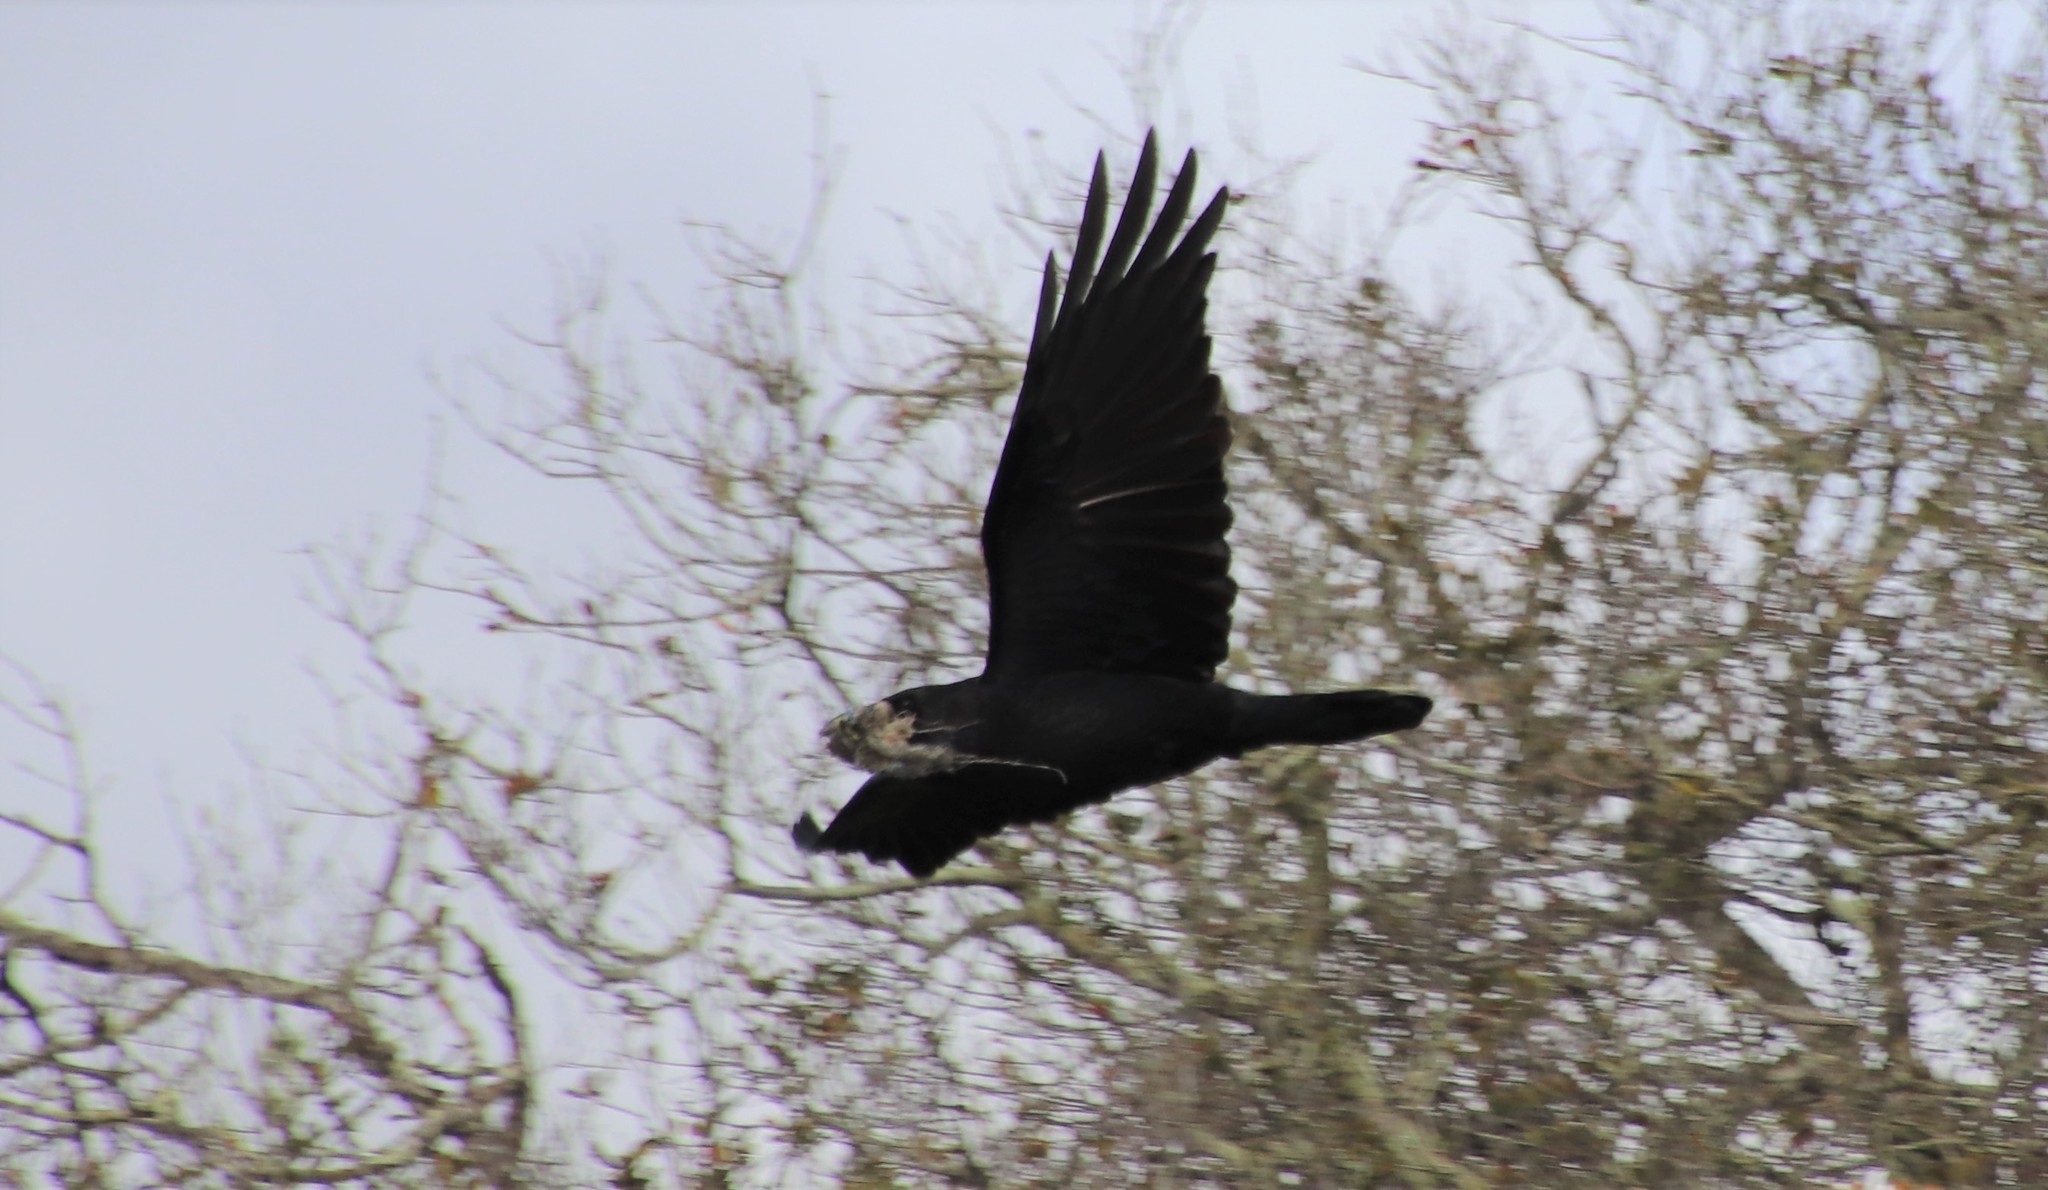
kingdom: Animalia
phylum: Chordata
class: Aves
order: Passeriformes
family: Corvidae
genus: Corvus
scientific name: Corvus corax
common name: Common raven
